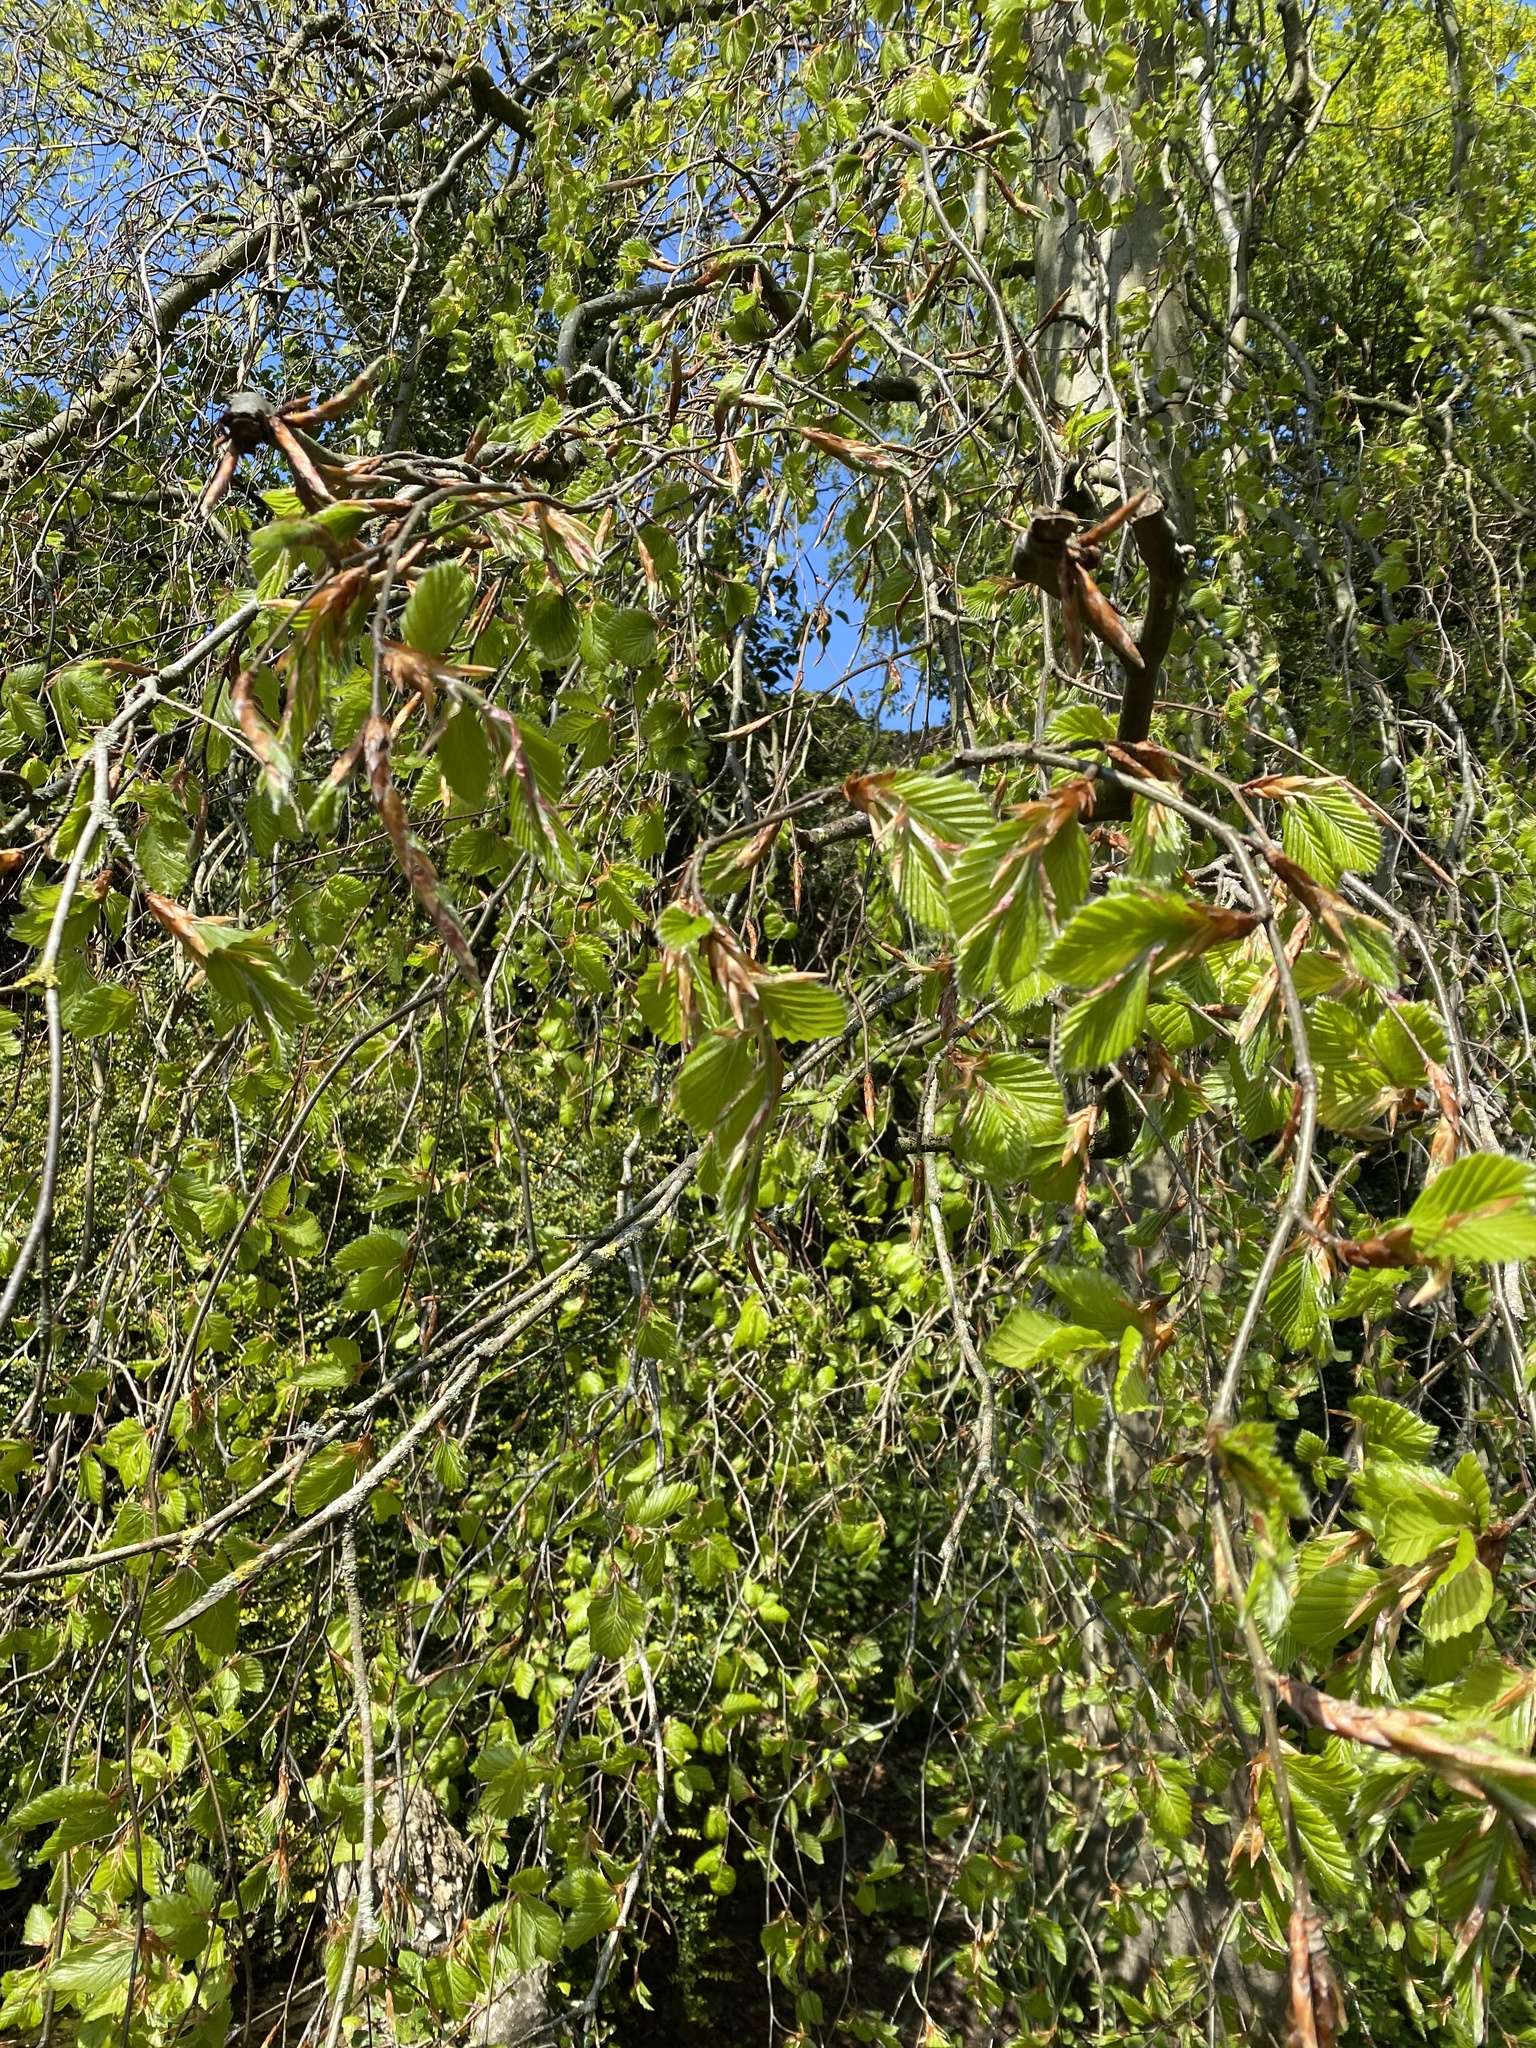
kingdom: Plantae
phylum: Tracheophyta
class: Magnoliopsida
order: Fagales
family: Fagaceae
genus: Fagus
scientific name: Fagus sylvatica
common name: Beech
